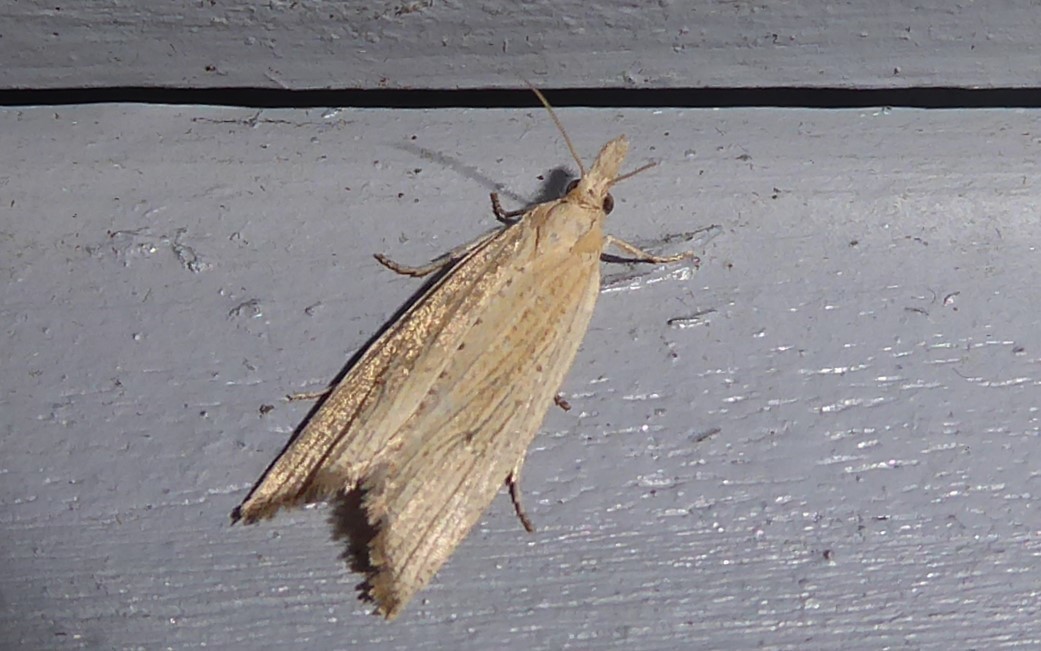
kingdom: Animalia
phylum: Arthropoda
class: Insecta
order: Lepidoptera
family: Tortricidae
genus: Bactra
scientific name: Bactra noteraula
